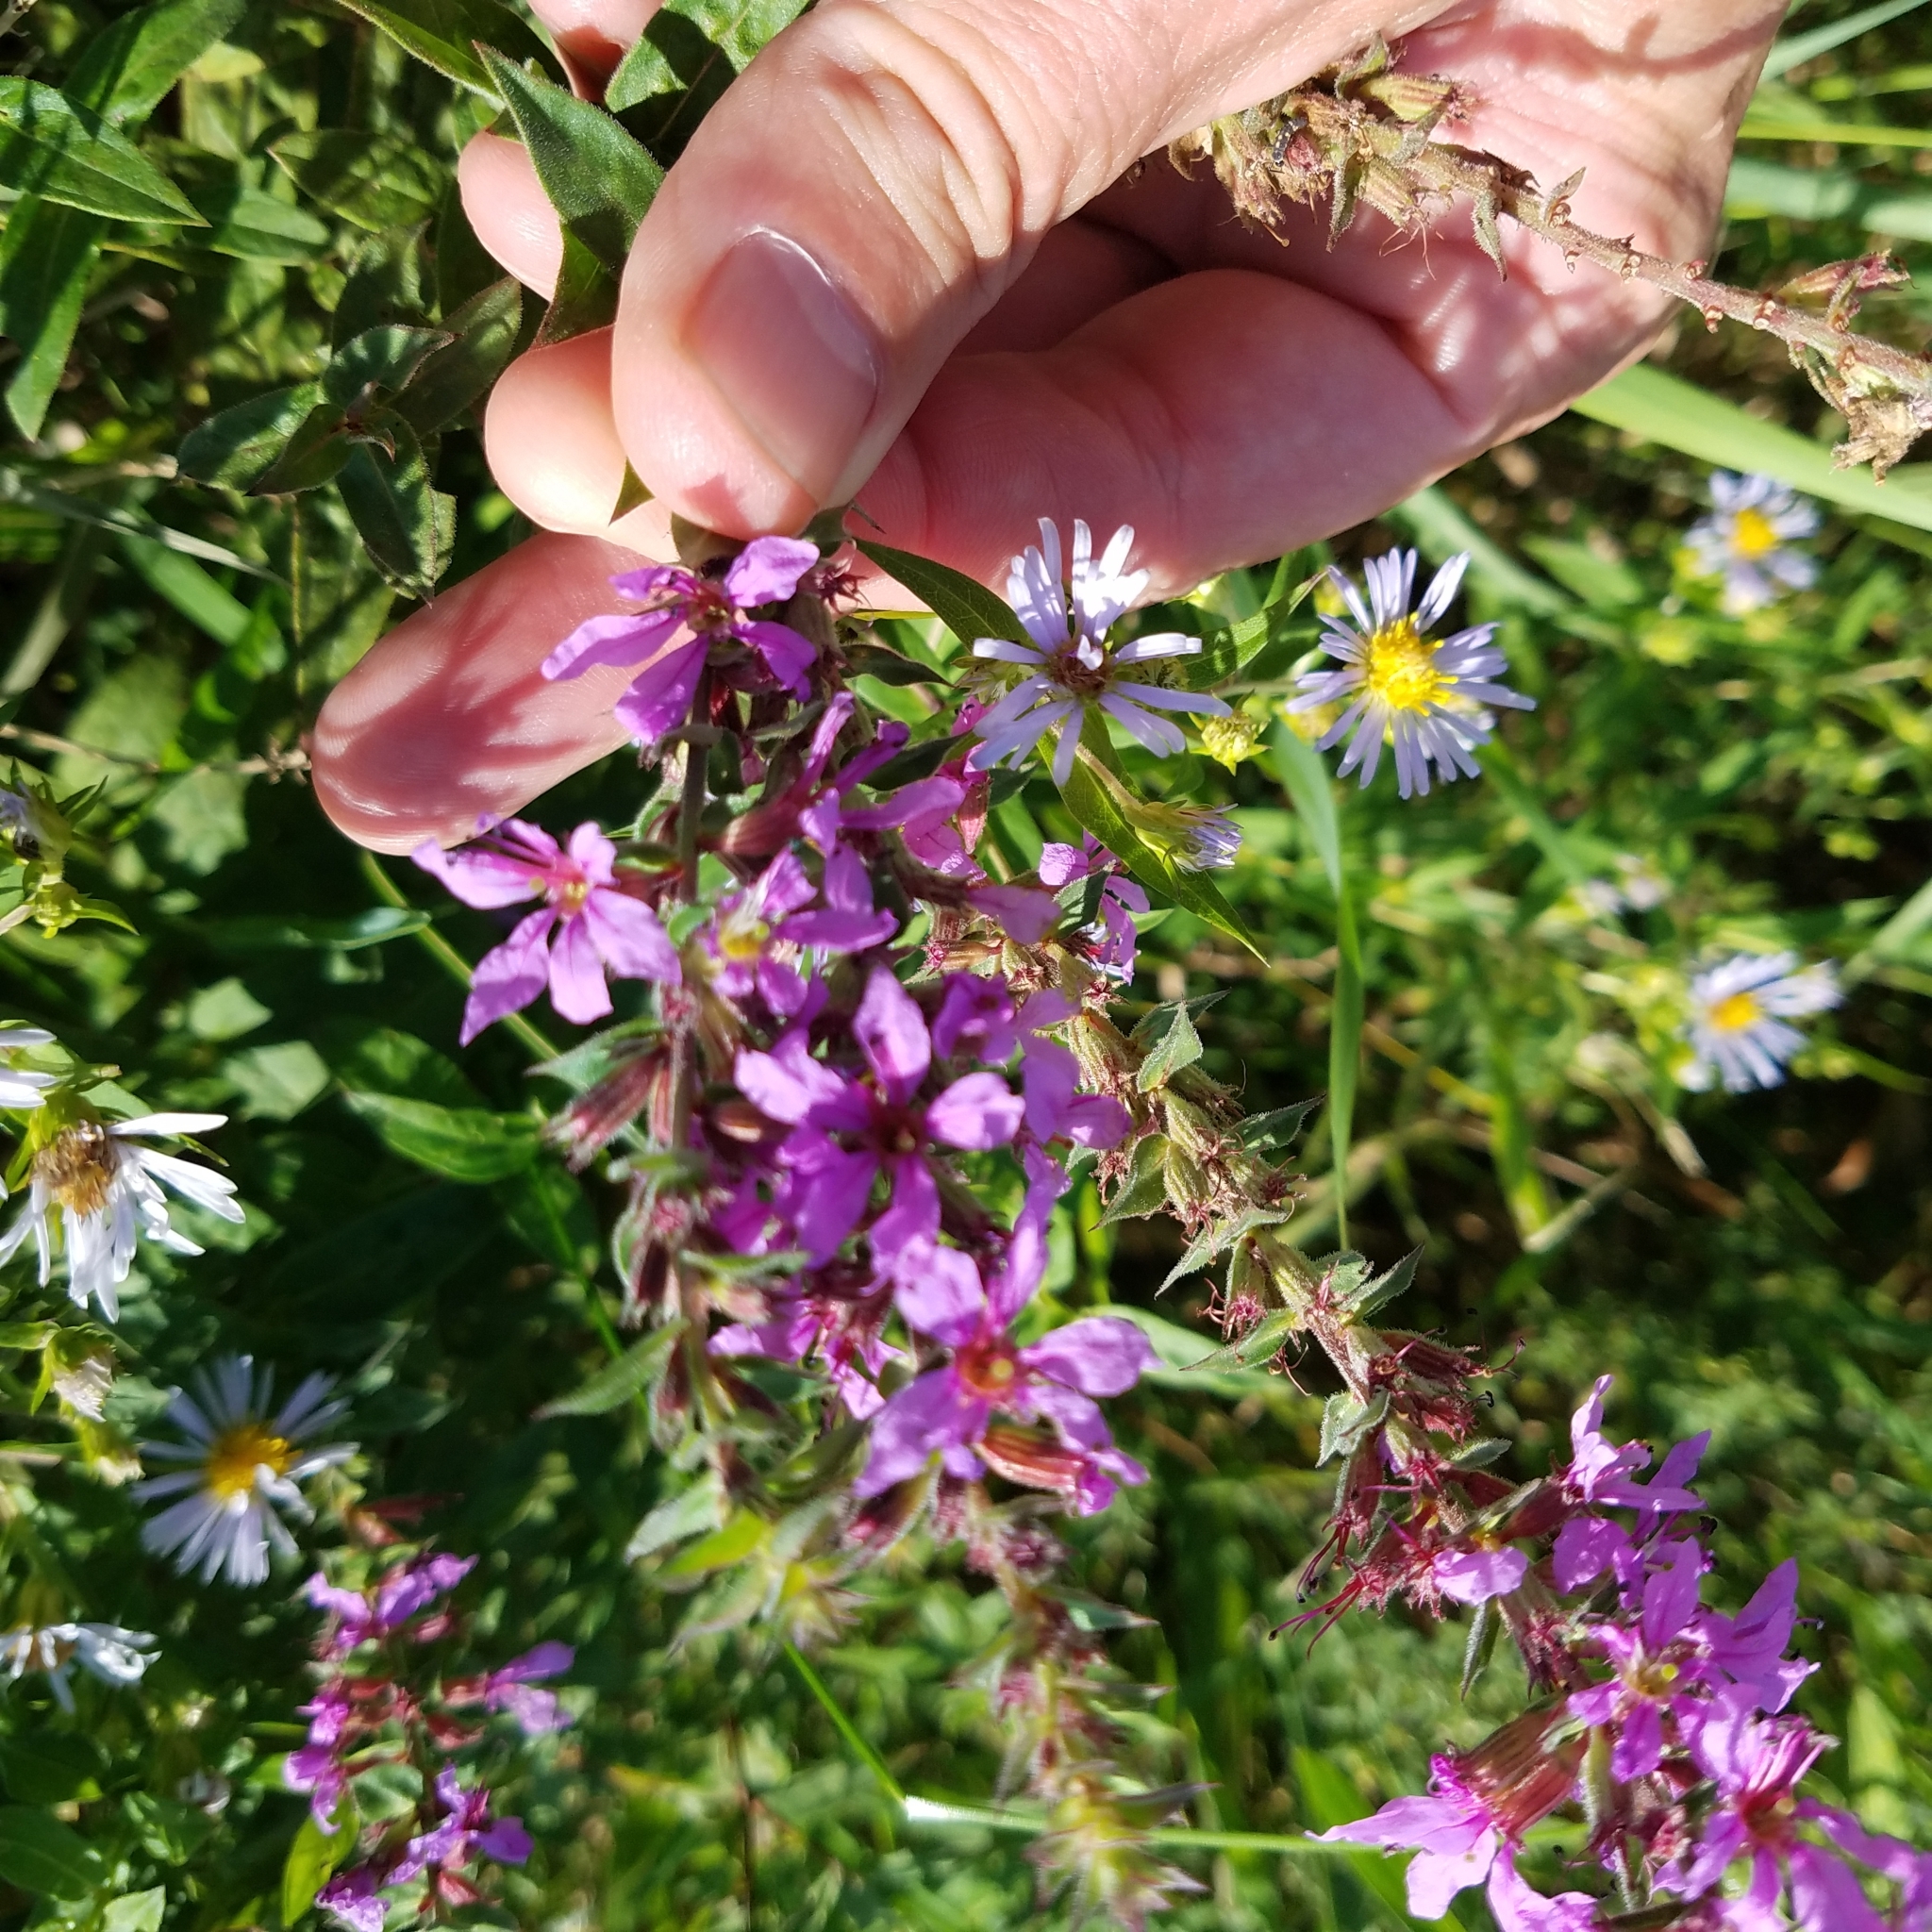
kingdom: Plantae
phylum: Tracheophyta
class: Magnoliopsida
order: Myrtales
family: Lythraceae
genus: Lythrum
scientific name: Lythrum salicaria
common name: Purple loosestrife
